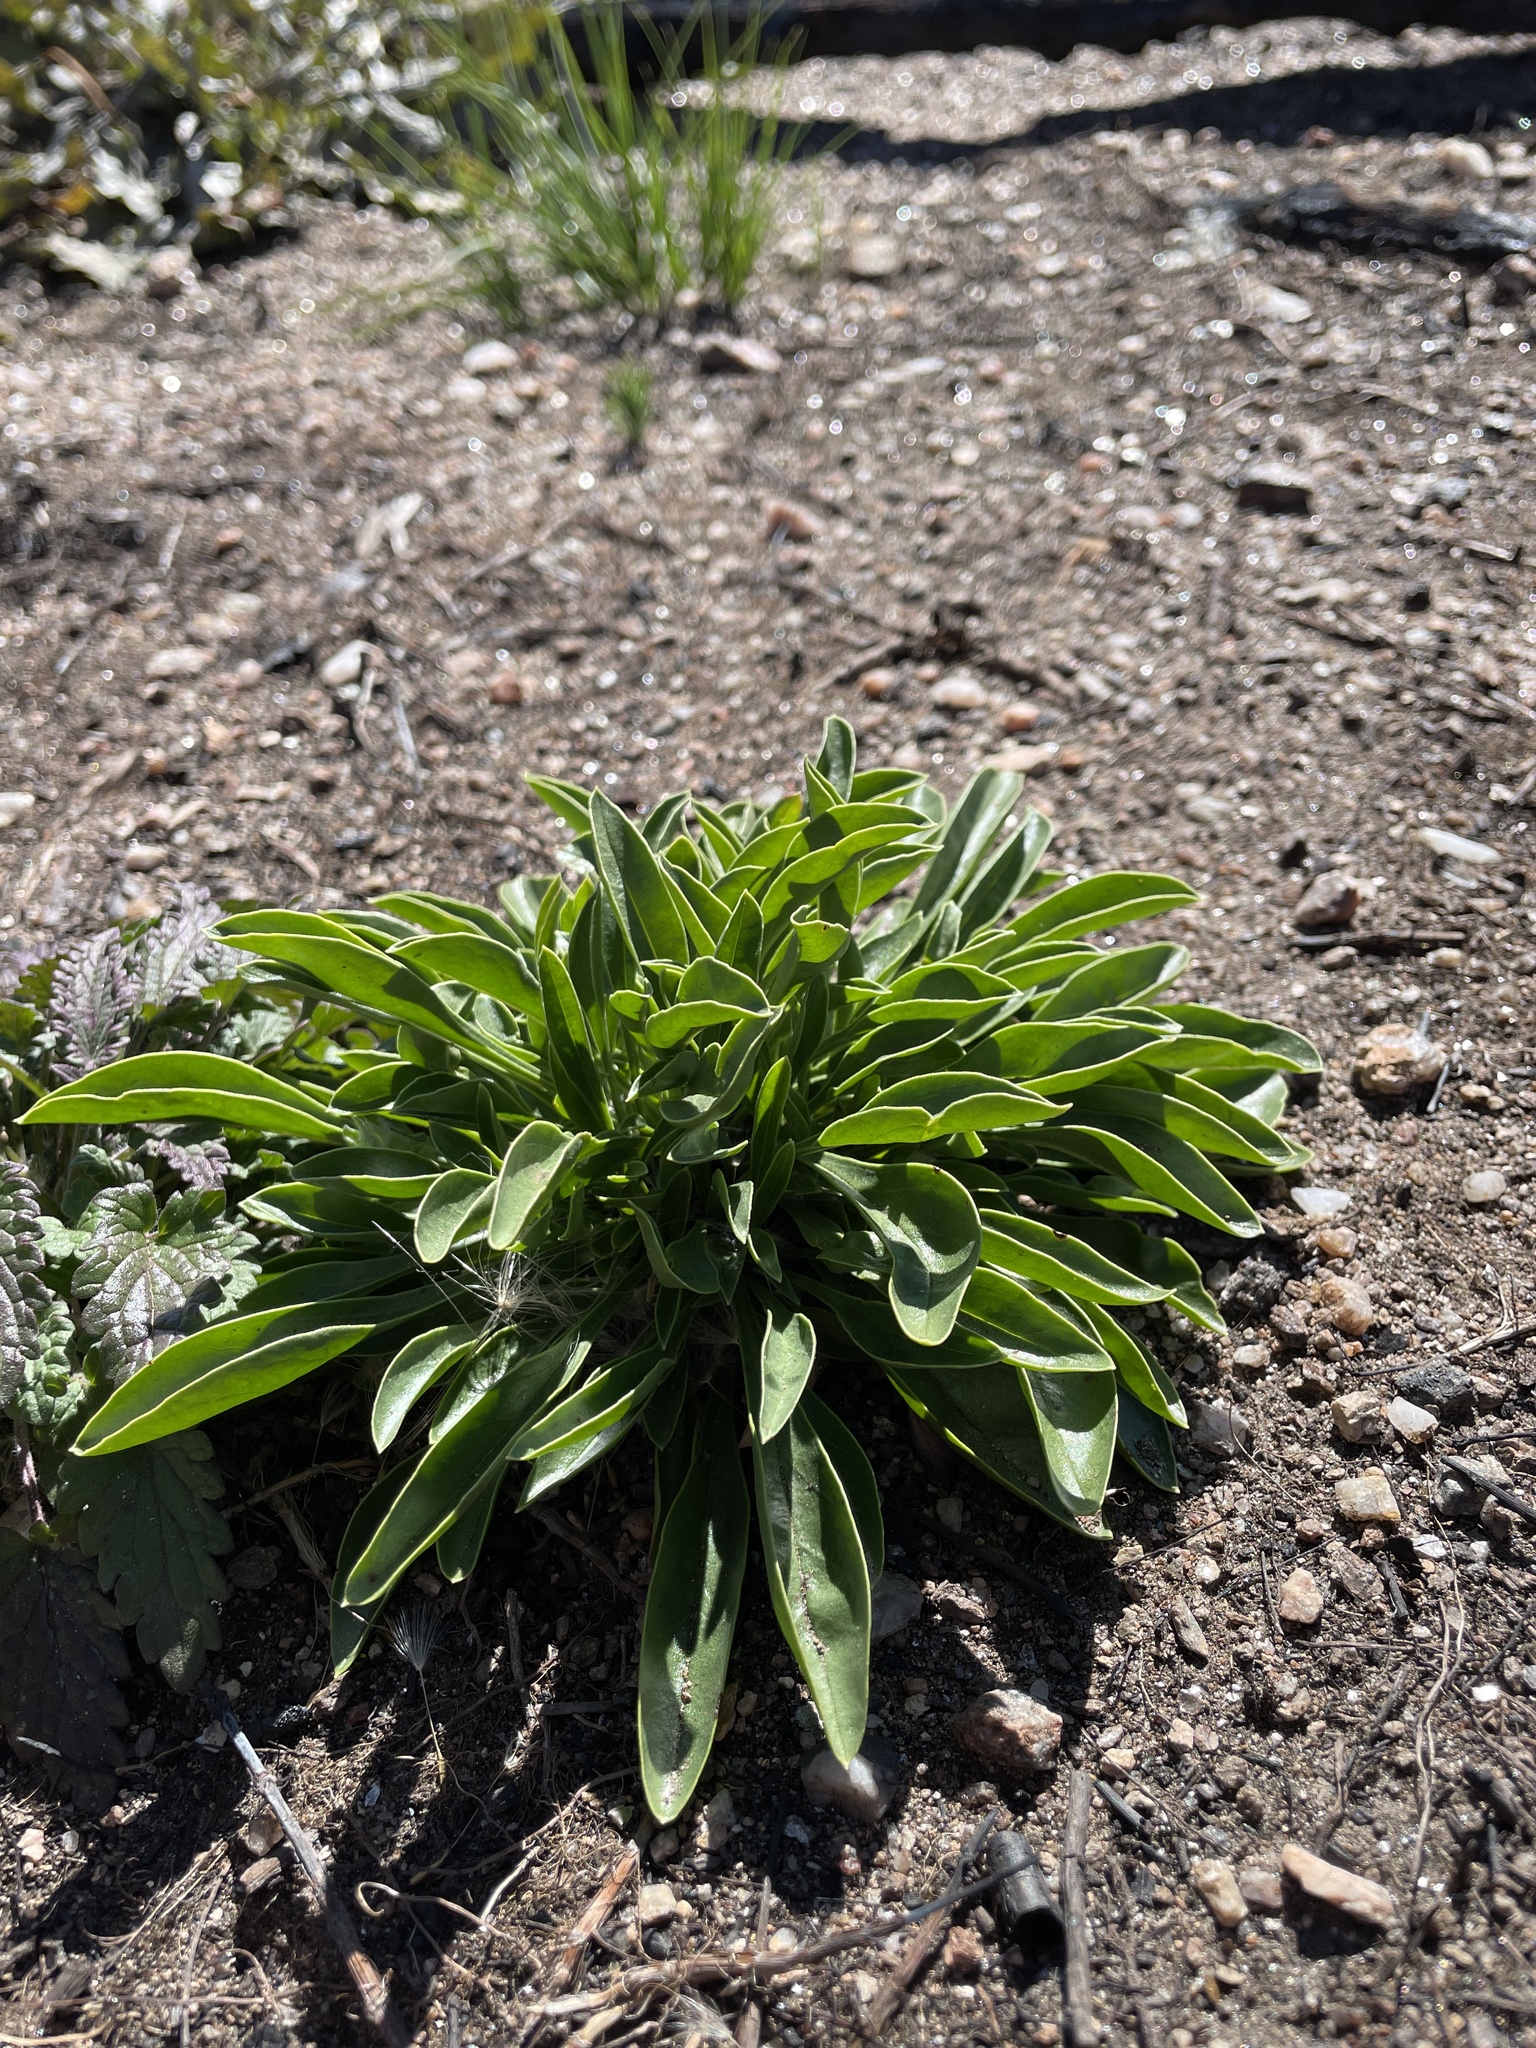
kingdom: Plantae
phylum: Tracheophyta
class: Magnoliopsida
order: Lamiales
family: Plantaginaceae
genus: Penstemon
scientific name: Penstemon strictus
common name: Rocky mountain penstemon
